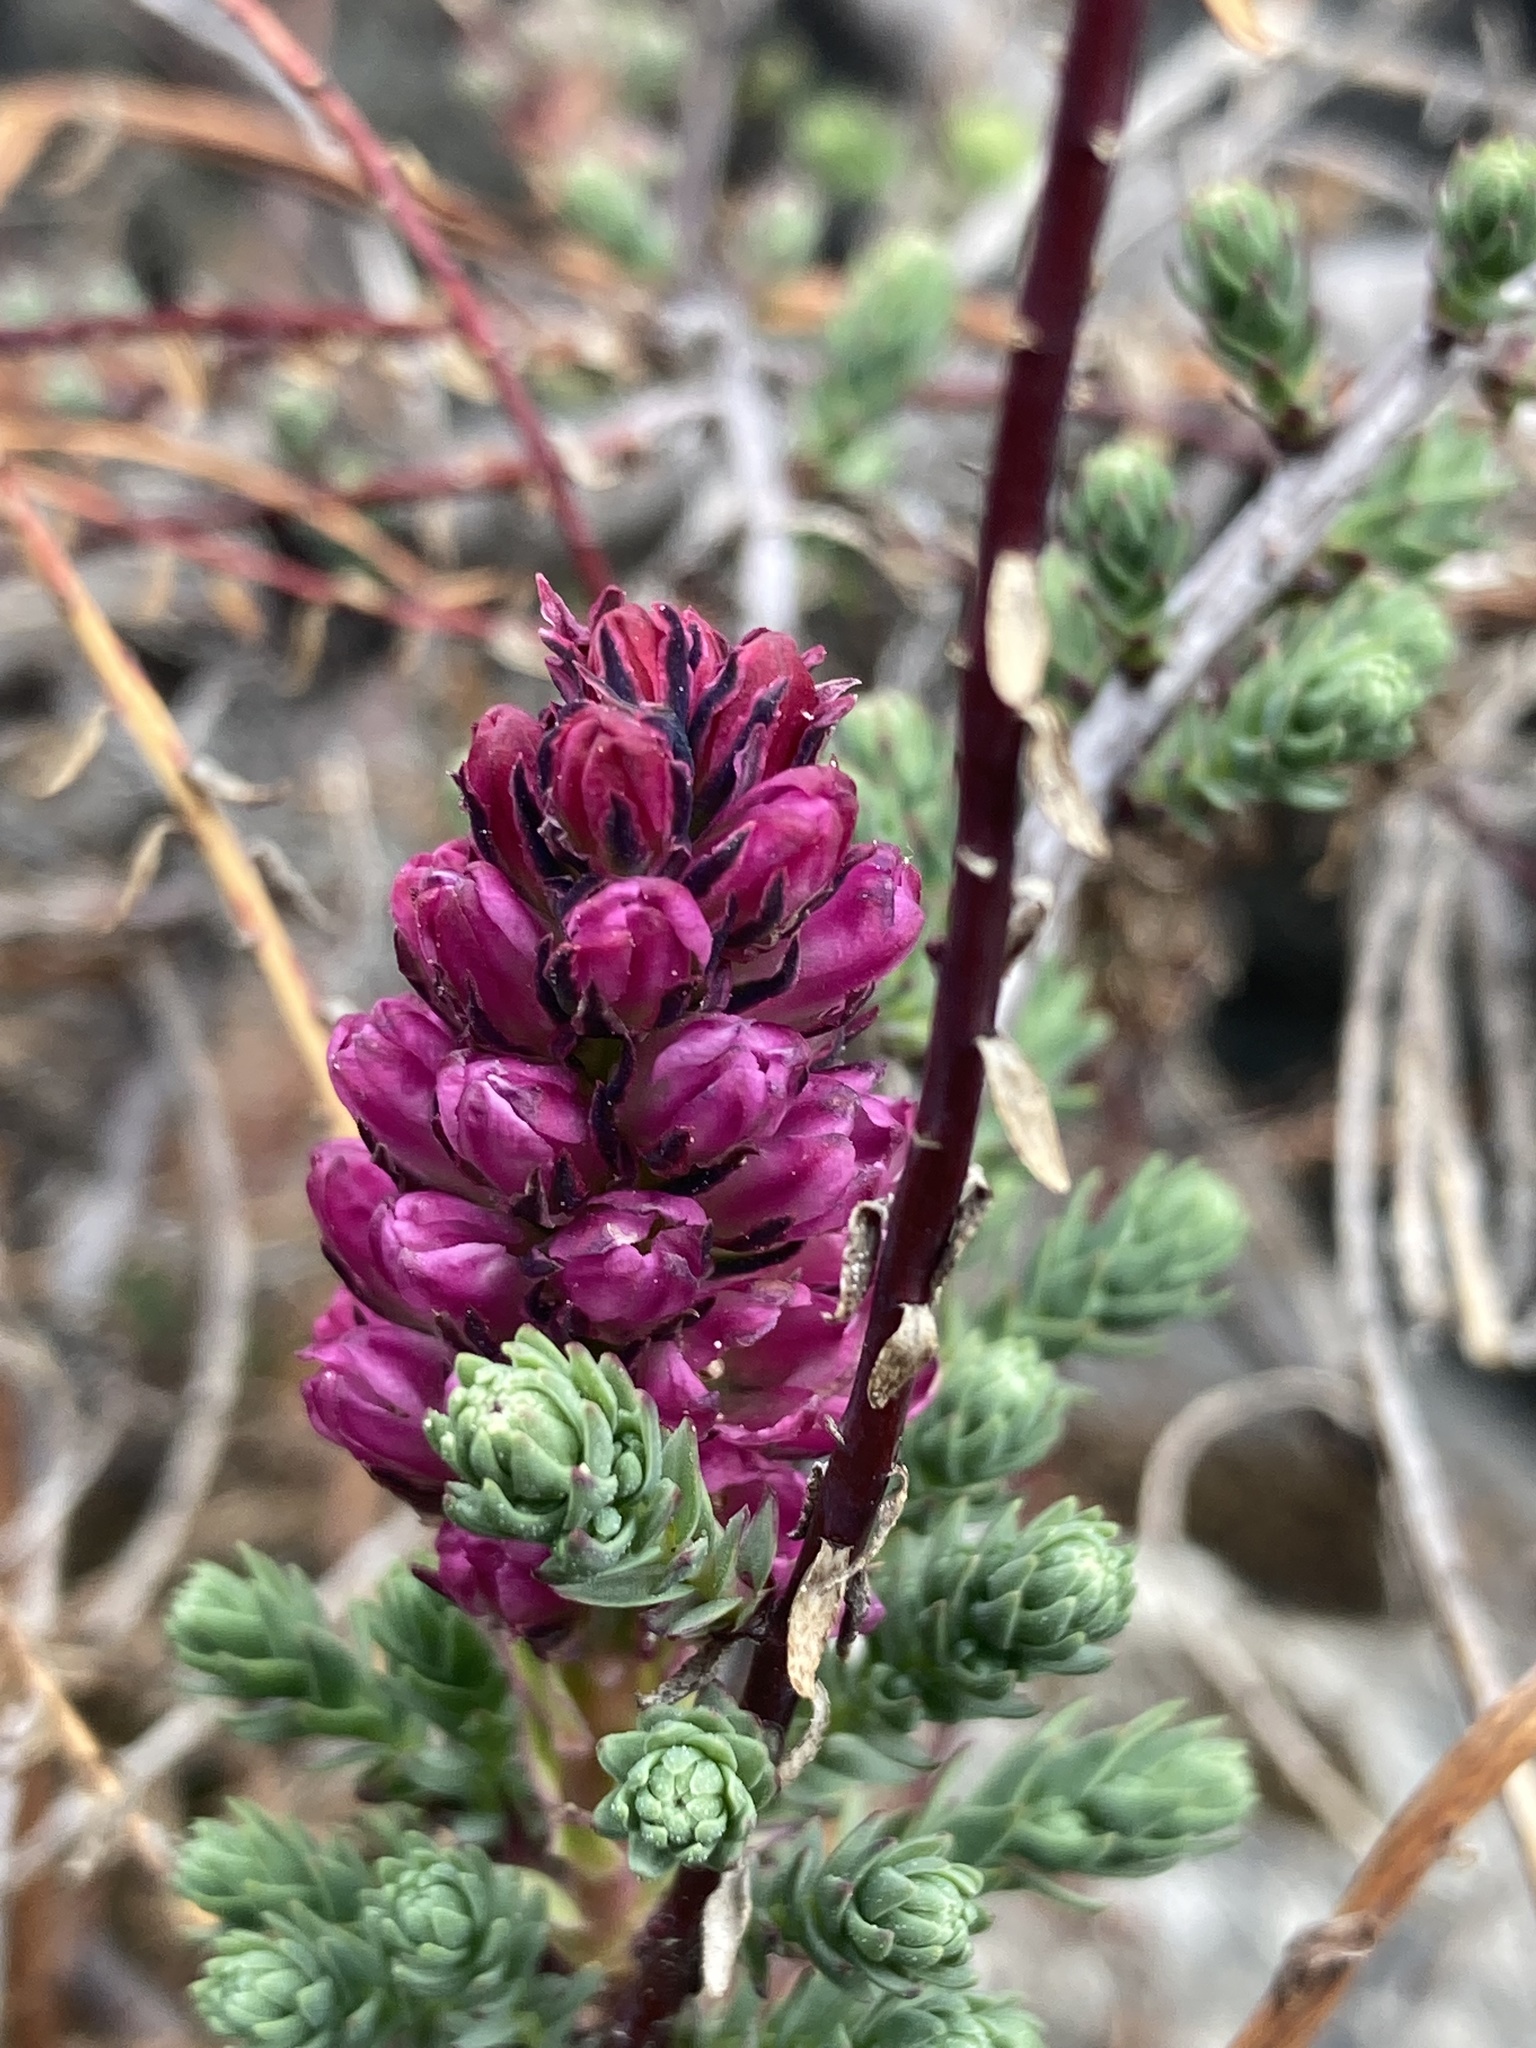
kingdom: Plantae
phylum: Tracheophyta
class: Magnoliopsida
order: Caryophyllales
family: Tamaricaceae
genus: Myricaria
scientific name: Myricaria rosea
